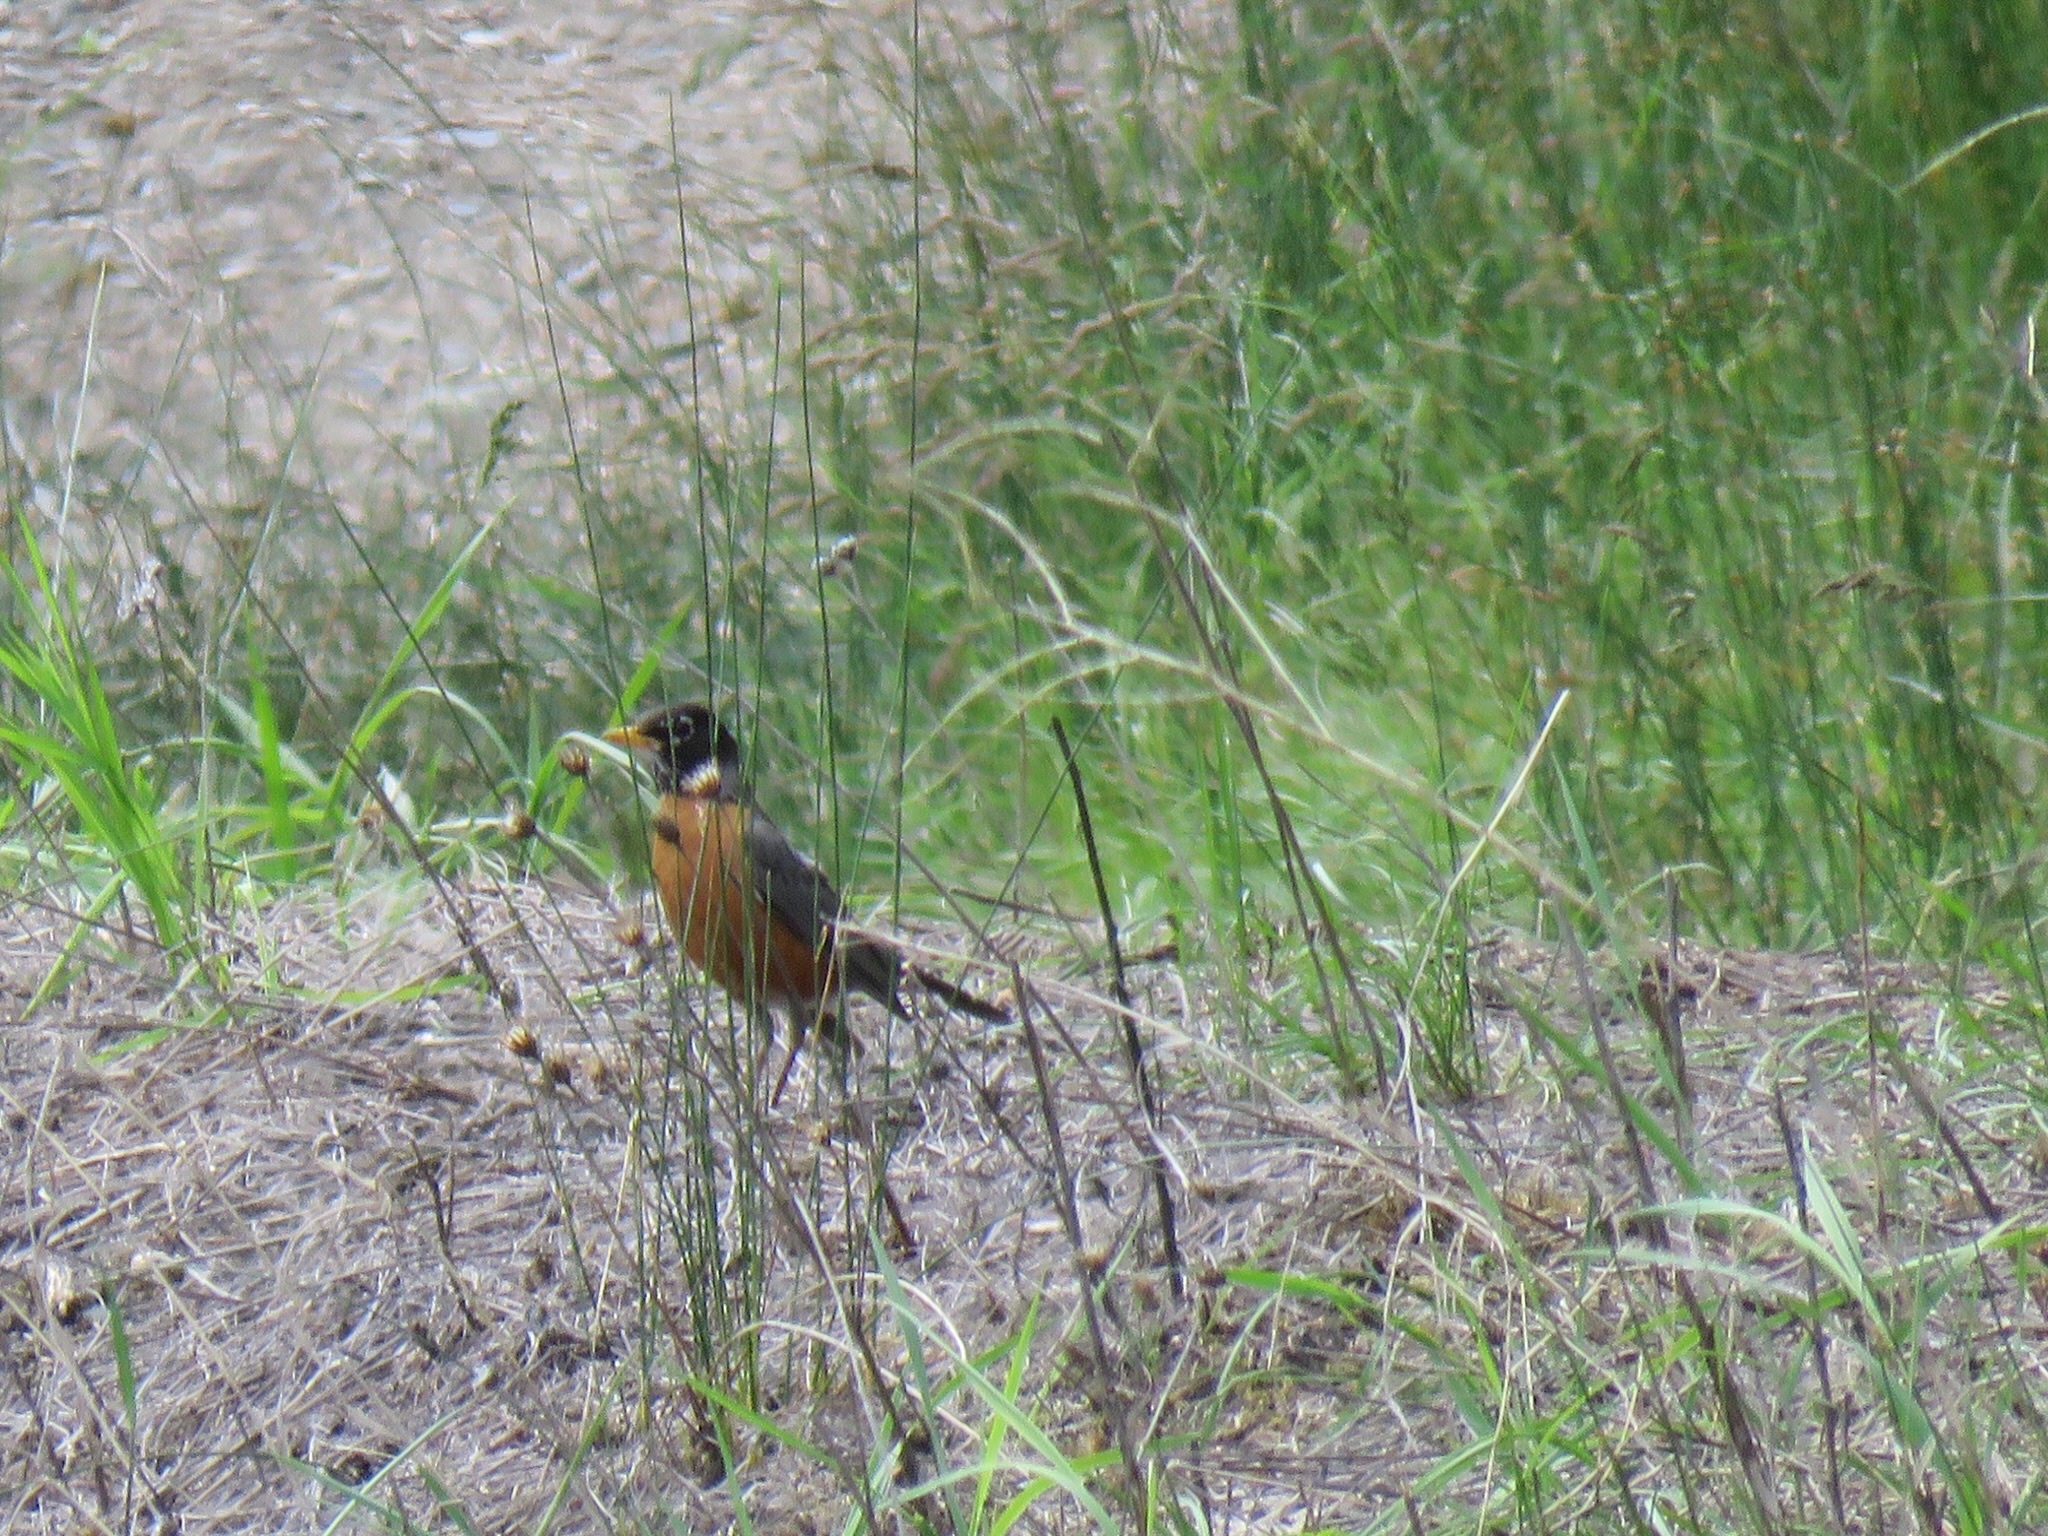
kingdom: Animalia
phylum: Chordata
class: Aves
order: Passeriformes
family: Turdidae
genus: Turdus
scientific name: Turdus migratorius
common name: American robin
